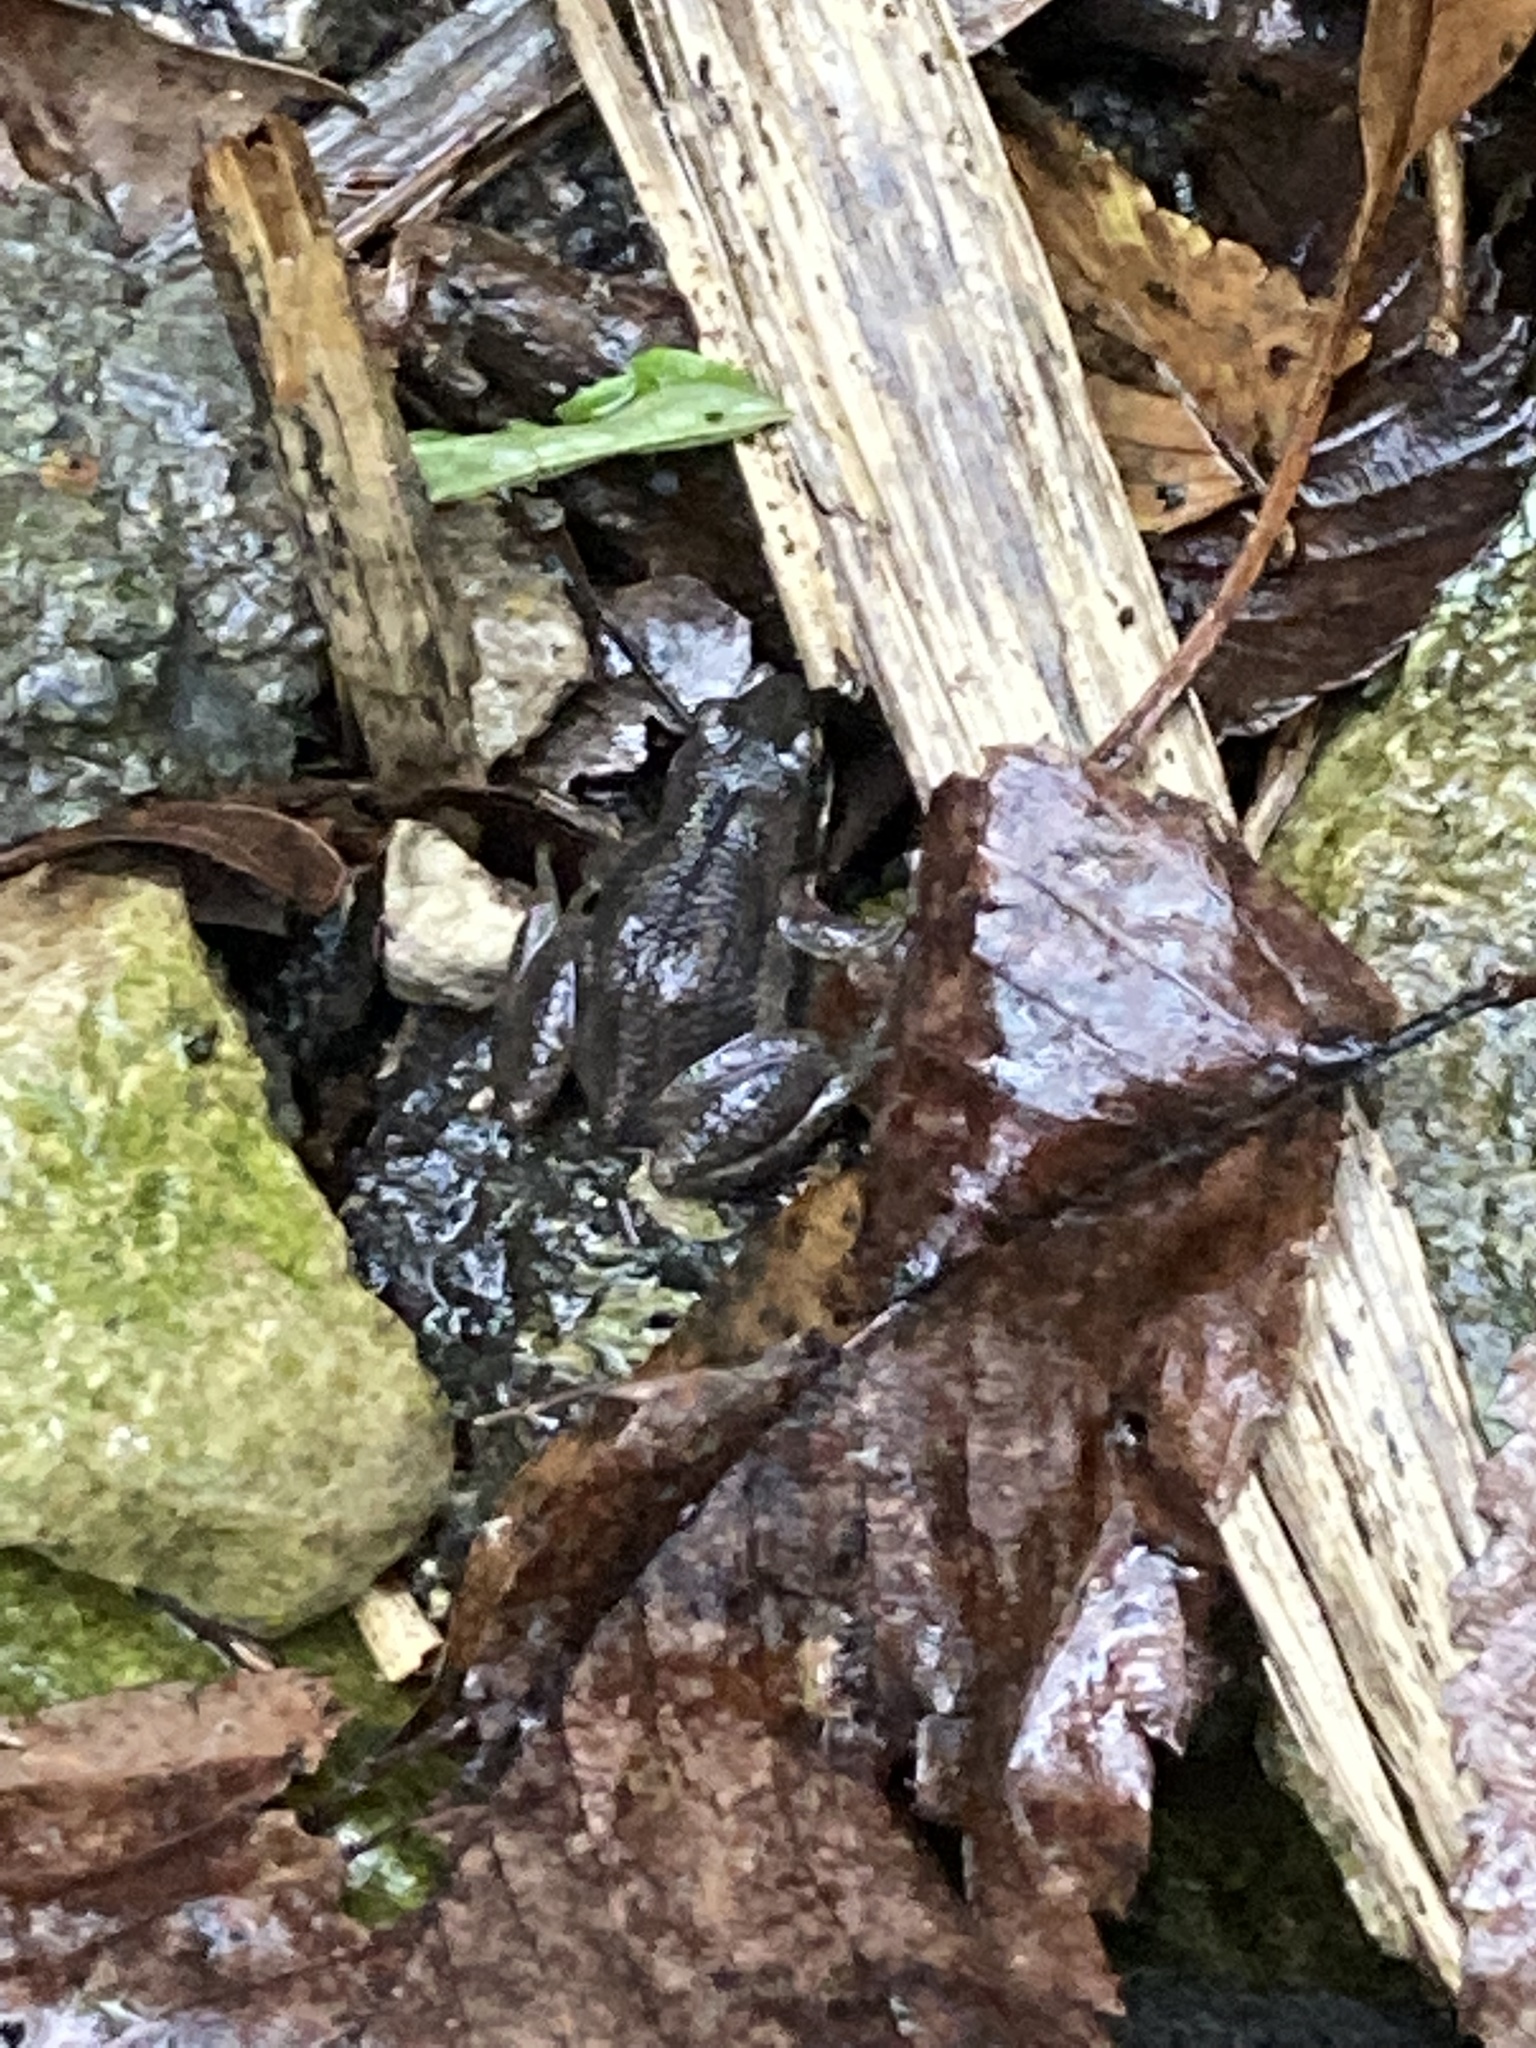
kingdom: Animalia
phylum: Chordata
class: Amphibia
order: Anura
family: Hylidae
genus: Pseudacris
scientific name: Pseudacris maculata
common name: Boreal chorus frog
